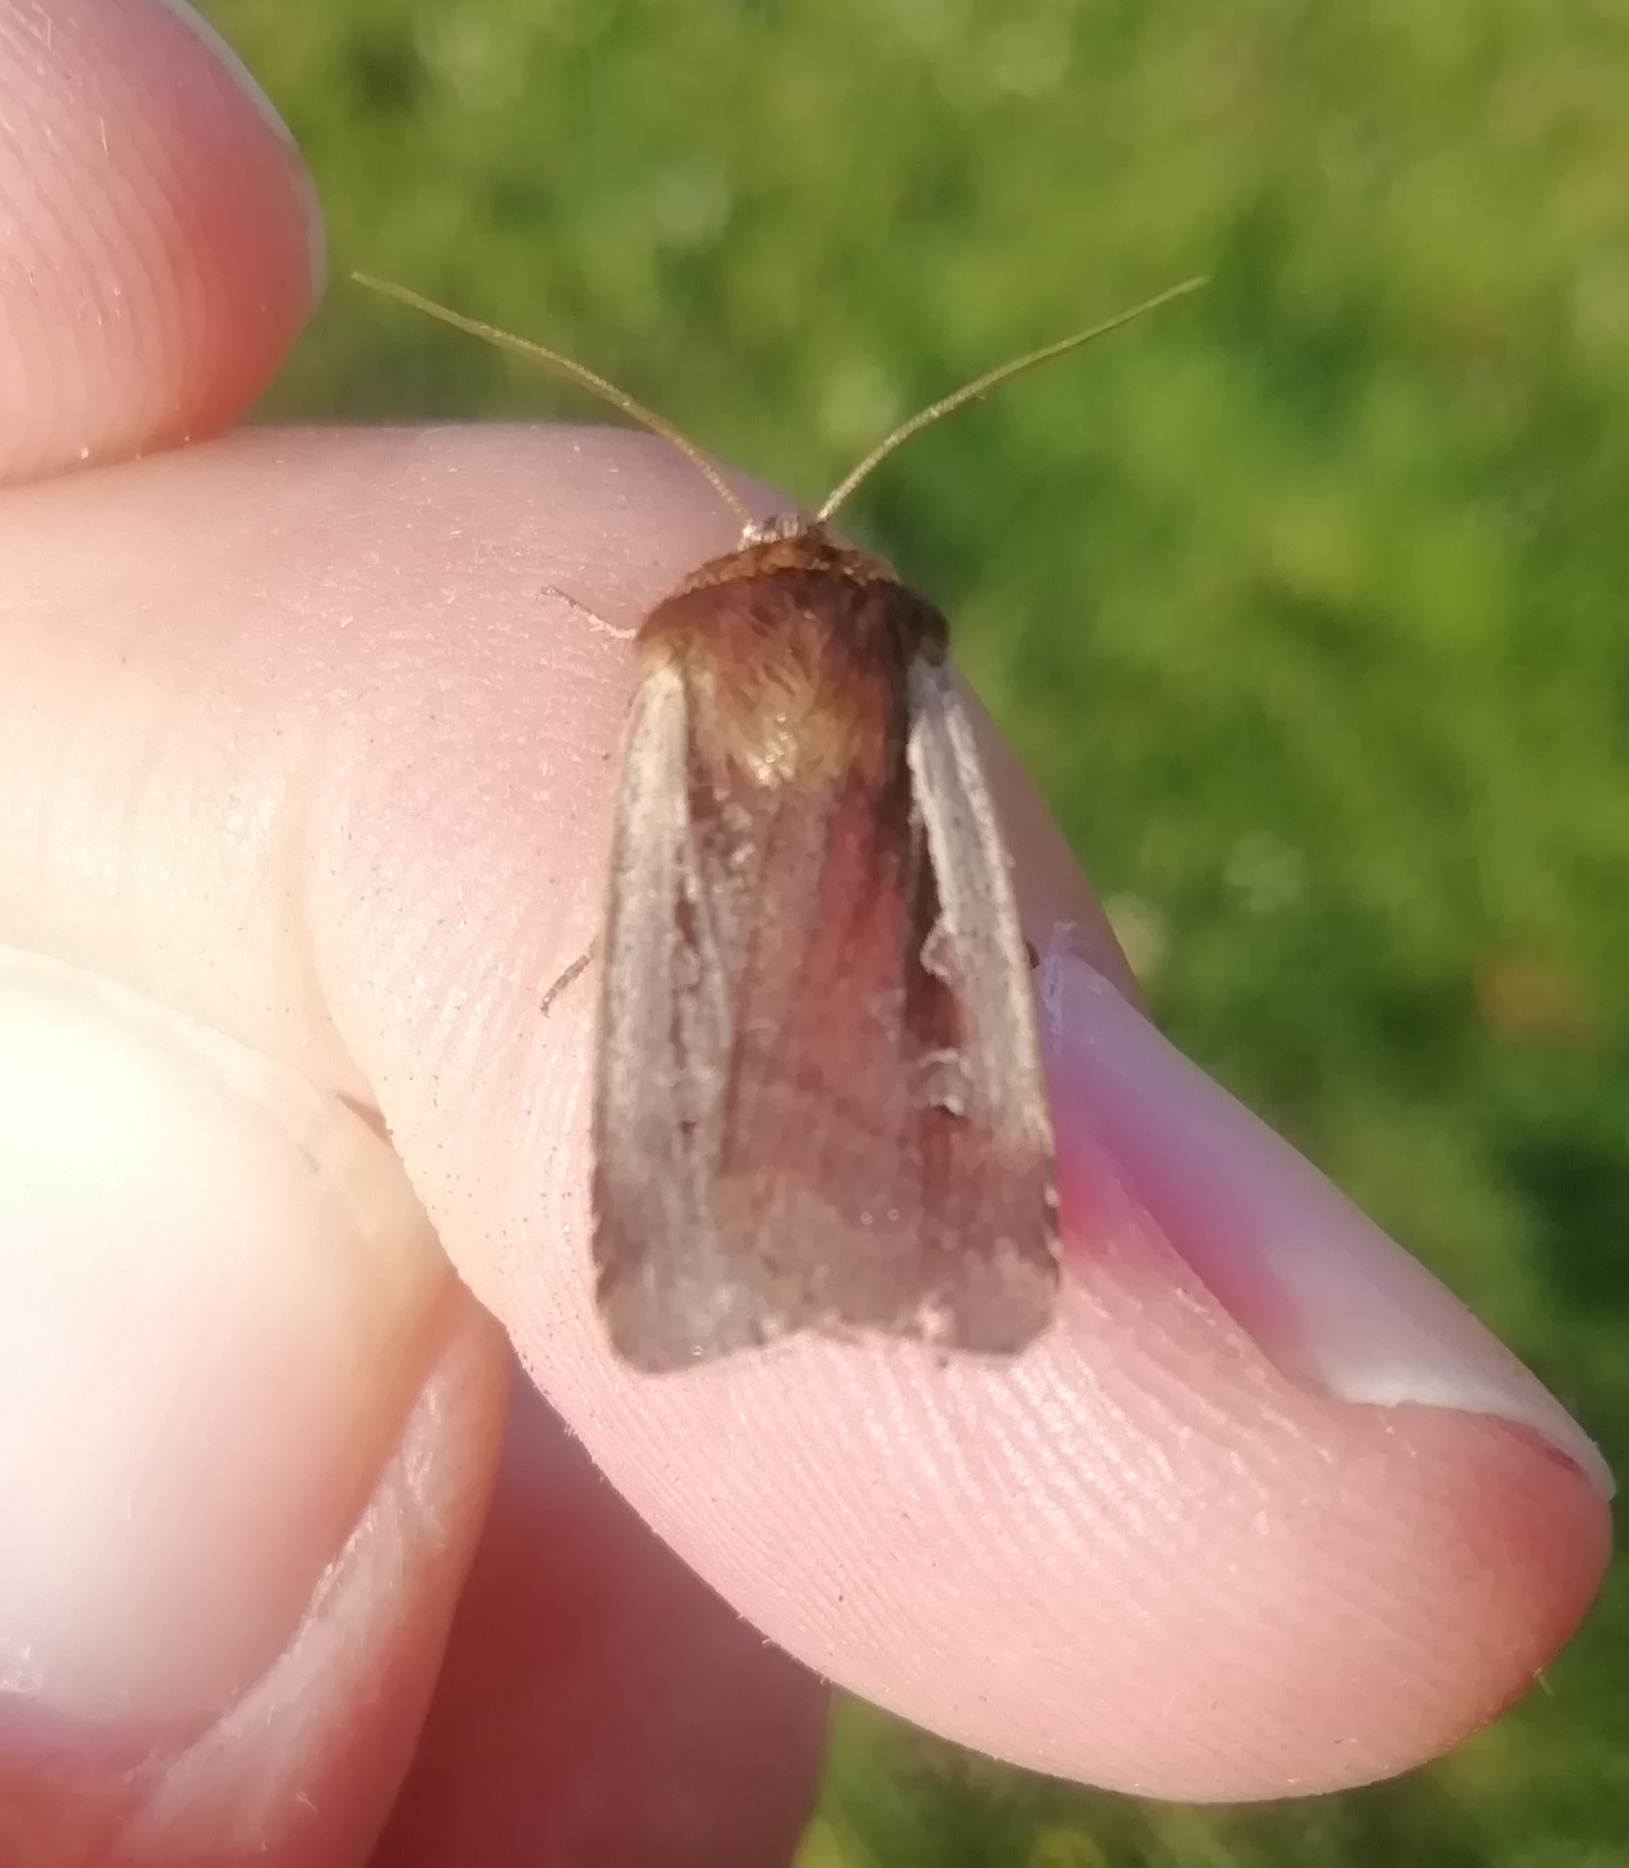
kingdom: Animalia
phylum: Arthropoda
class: Insecta
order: Lepidoptera
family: Noctuidae
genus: Ochropleura
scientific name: Ochropleura plecta
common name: Flame shoulder
